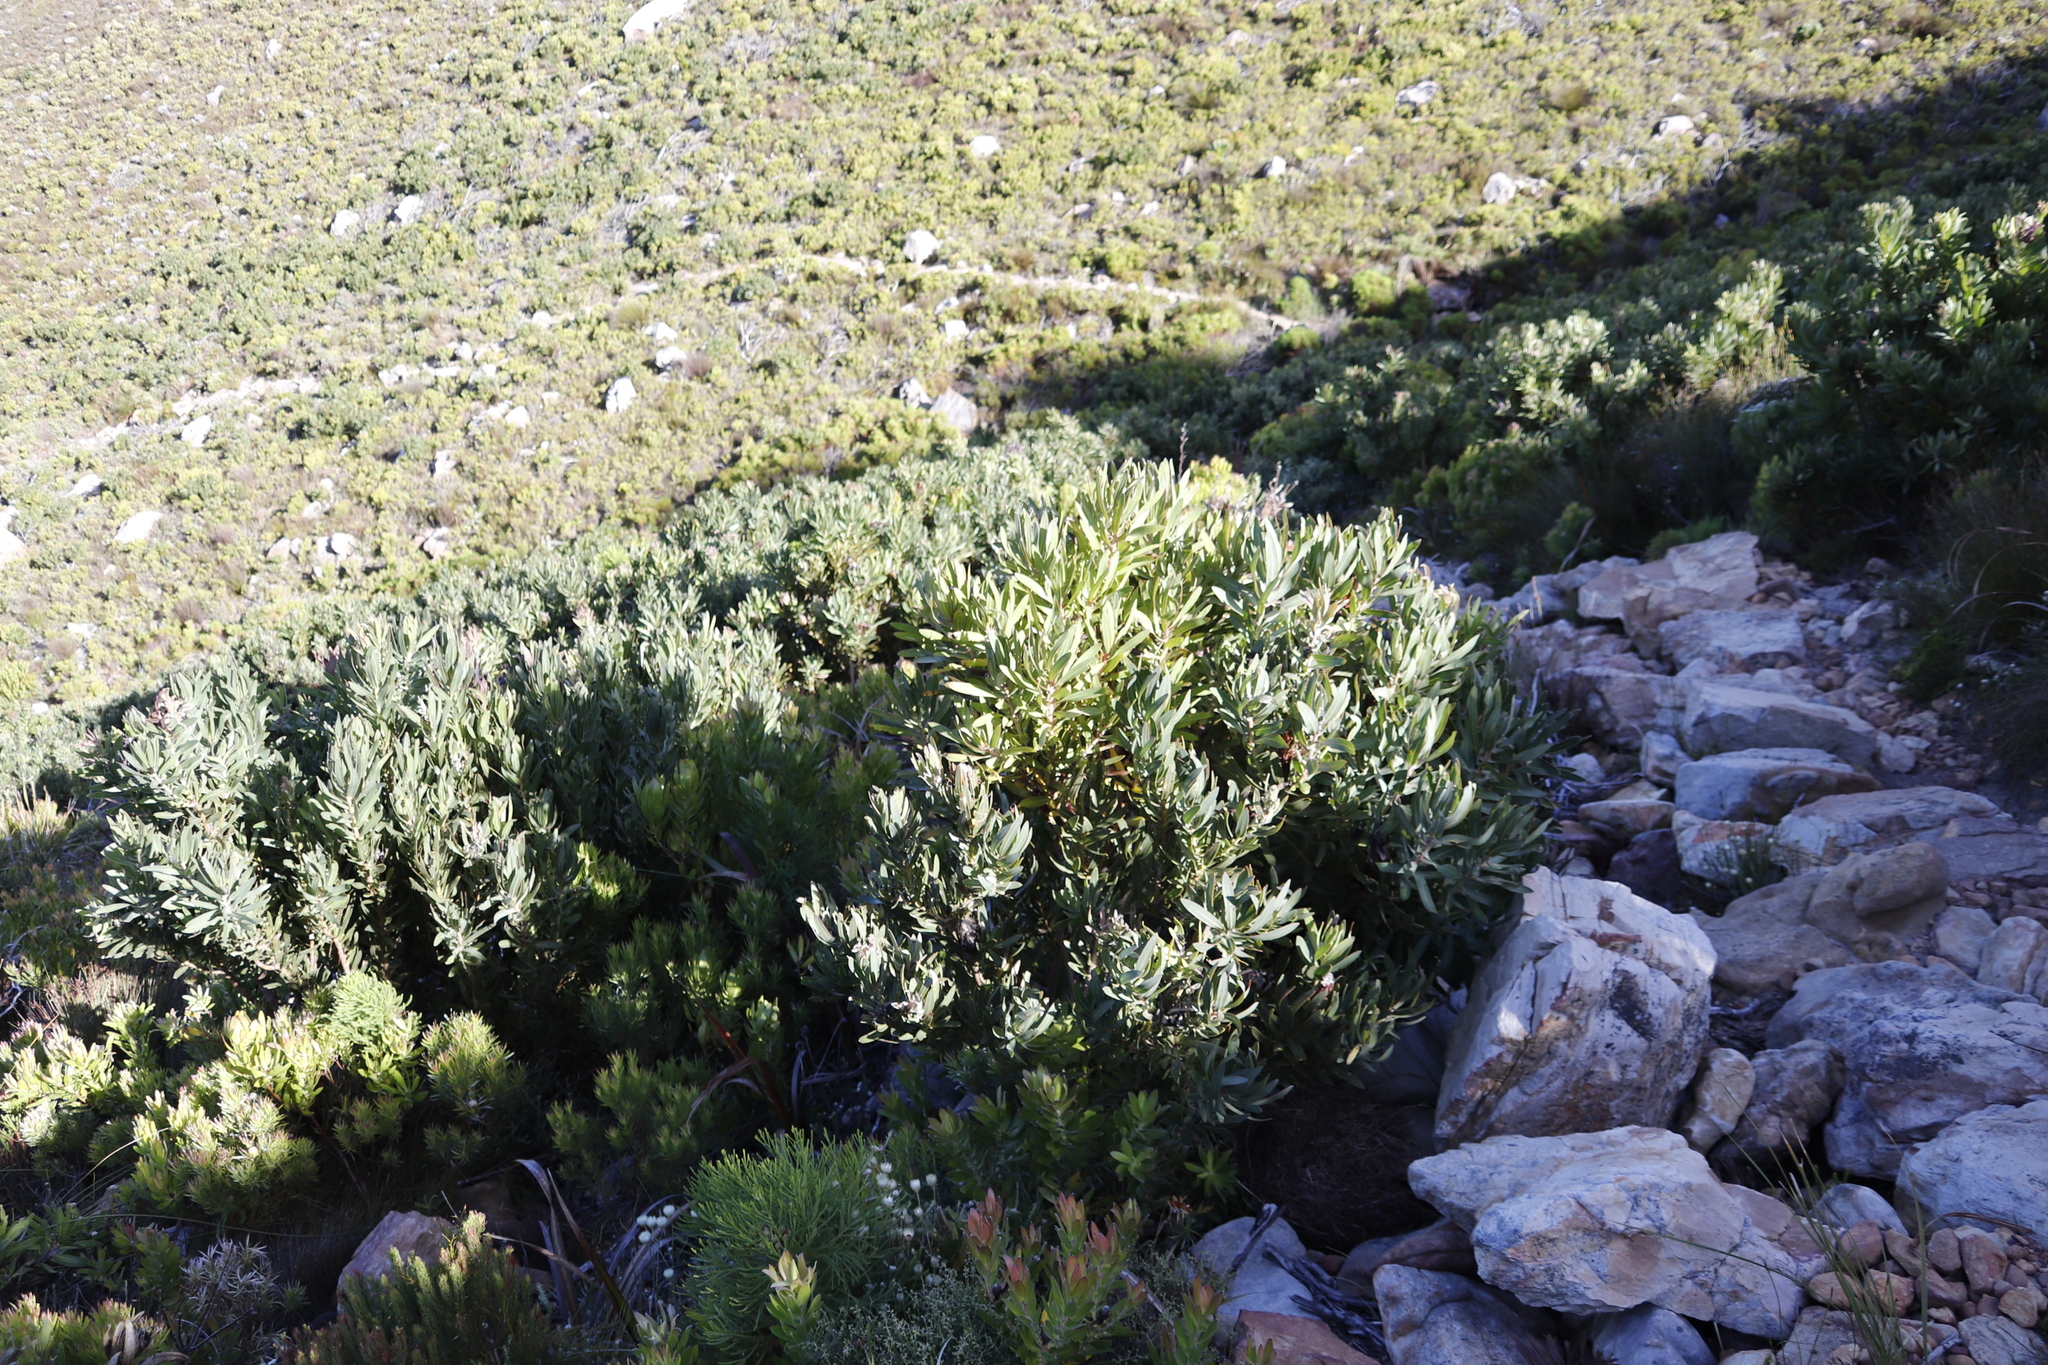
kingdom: Plantae
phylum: Tracheophyta
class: Magnoliopsida
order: Proteales
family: Proteaceae
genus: Protea
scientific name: Protea lepidocarpodendron
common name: Black-bearded protea
